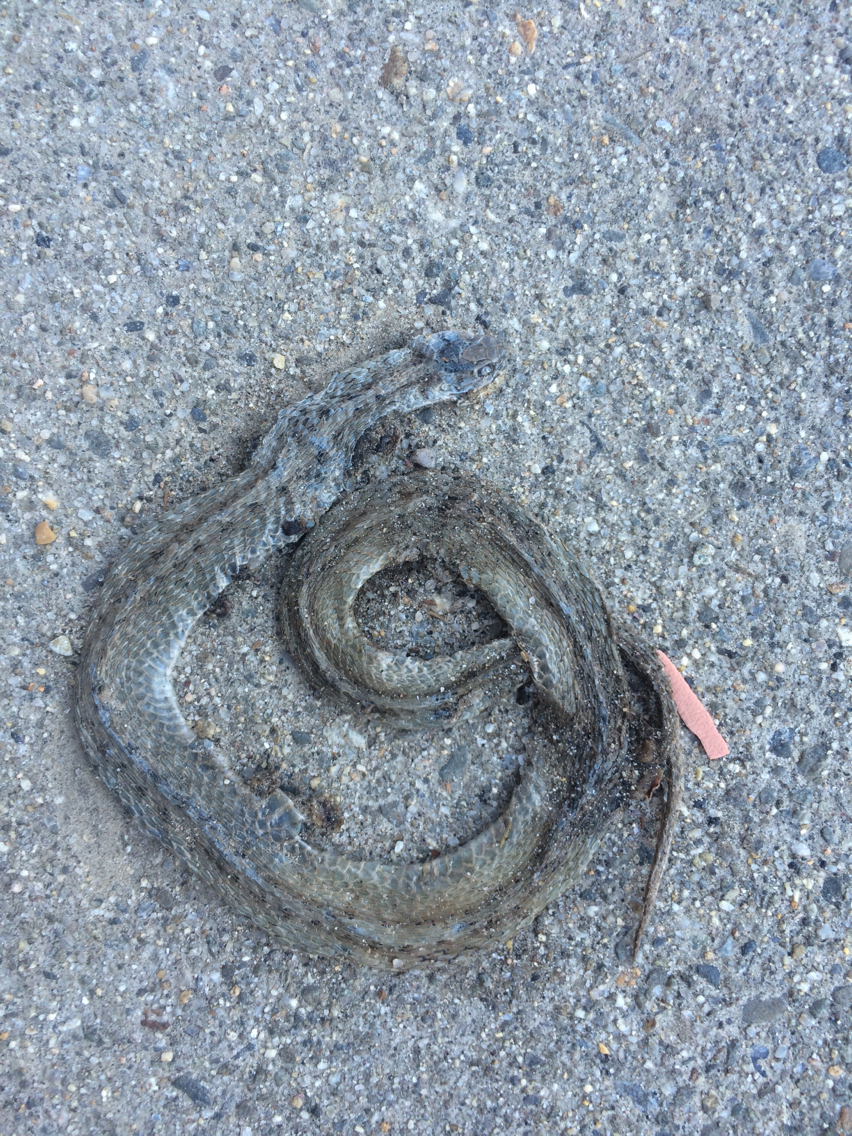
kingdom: Animalia
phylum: Chordata
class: Squamata
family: Colubridae
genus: Storeria
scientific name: Storeria dekayi
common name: (dekay’s) brown snake
